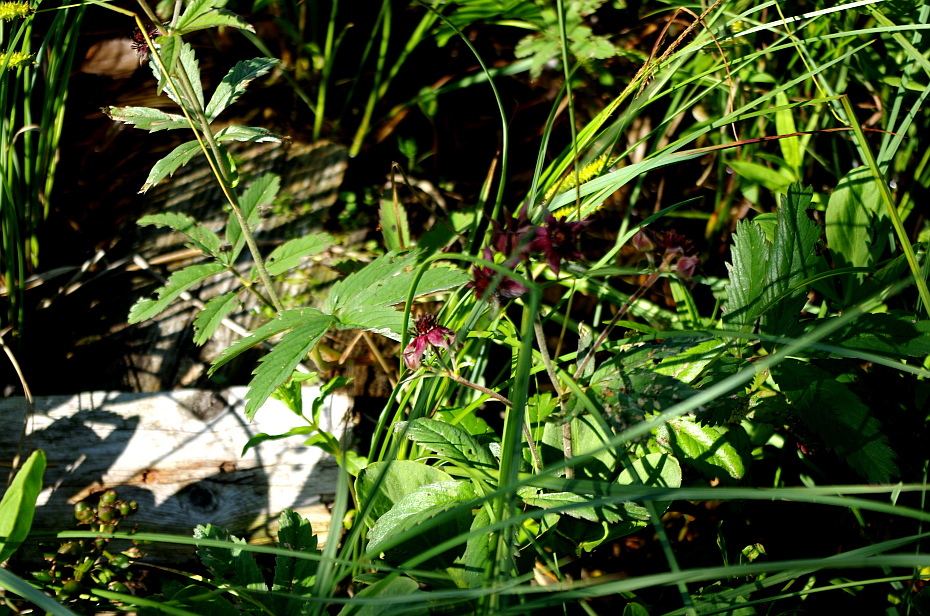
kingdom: Plantae
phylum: Tracheophyta
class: Magnoliopsida
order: Rosales
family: Rosaceae
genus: Comarum
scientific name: Comarum palustre
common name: Marsh cinquefoil
